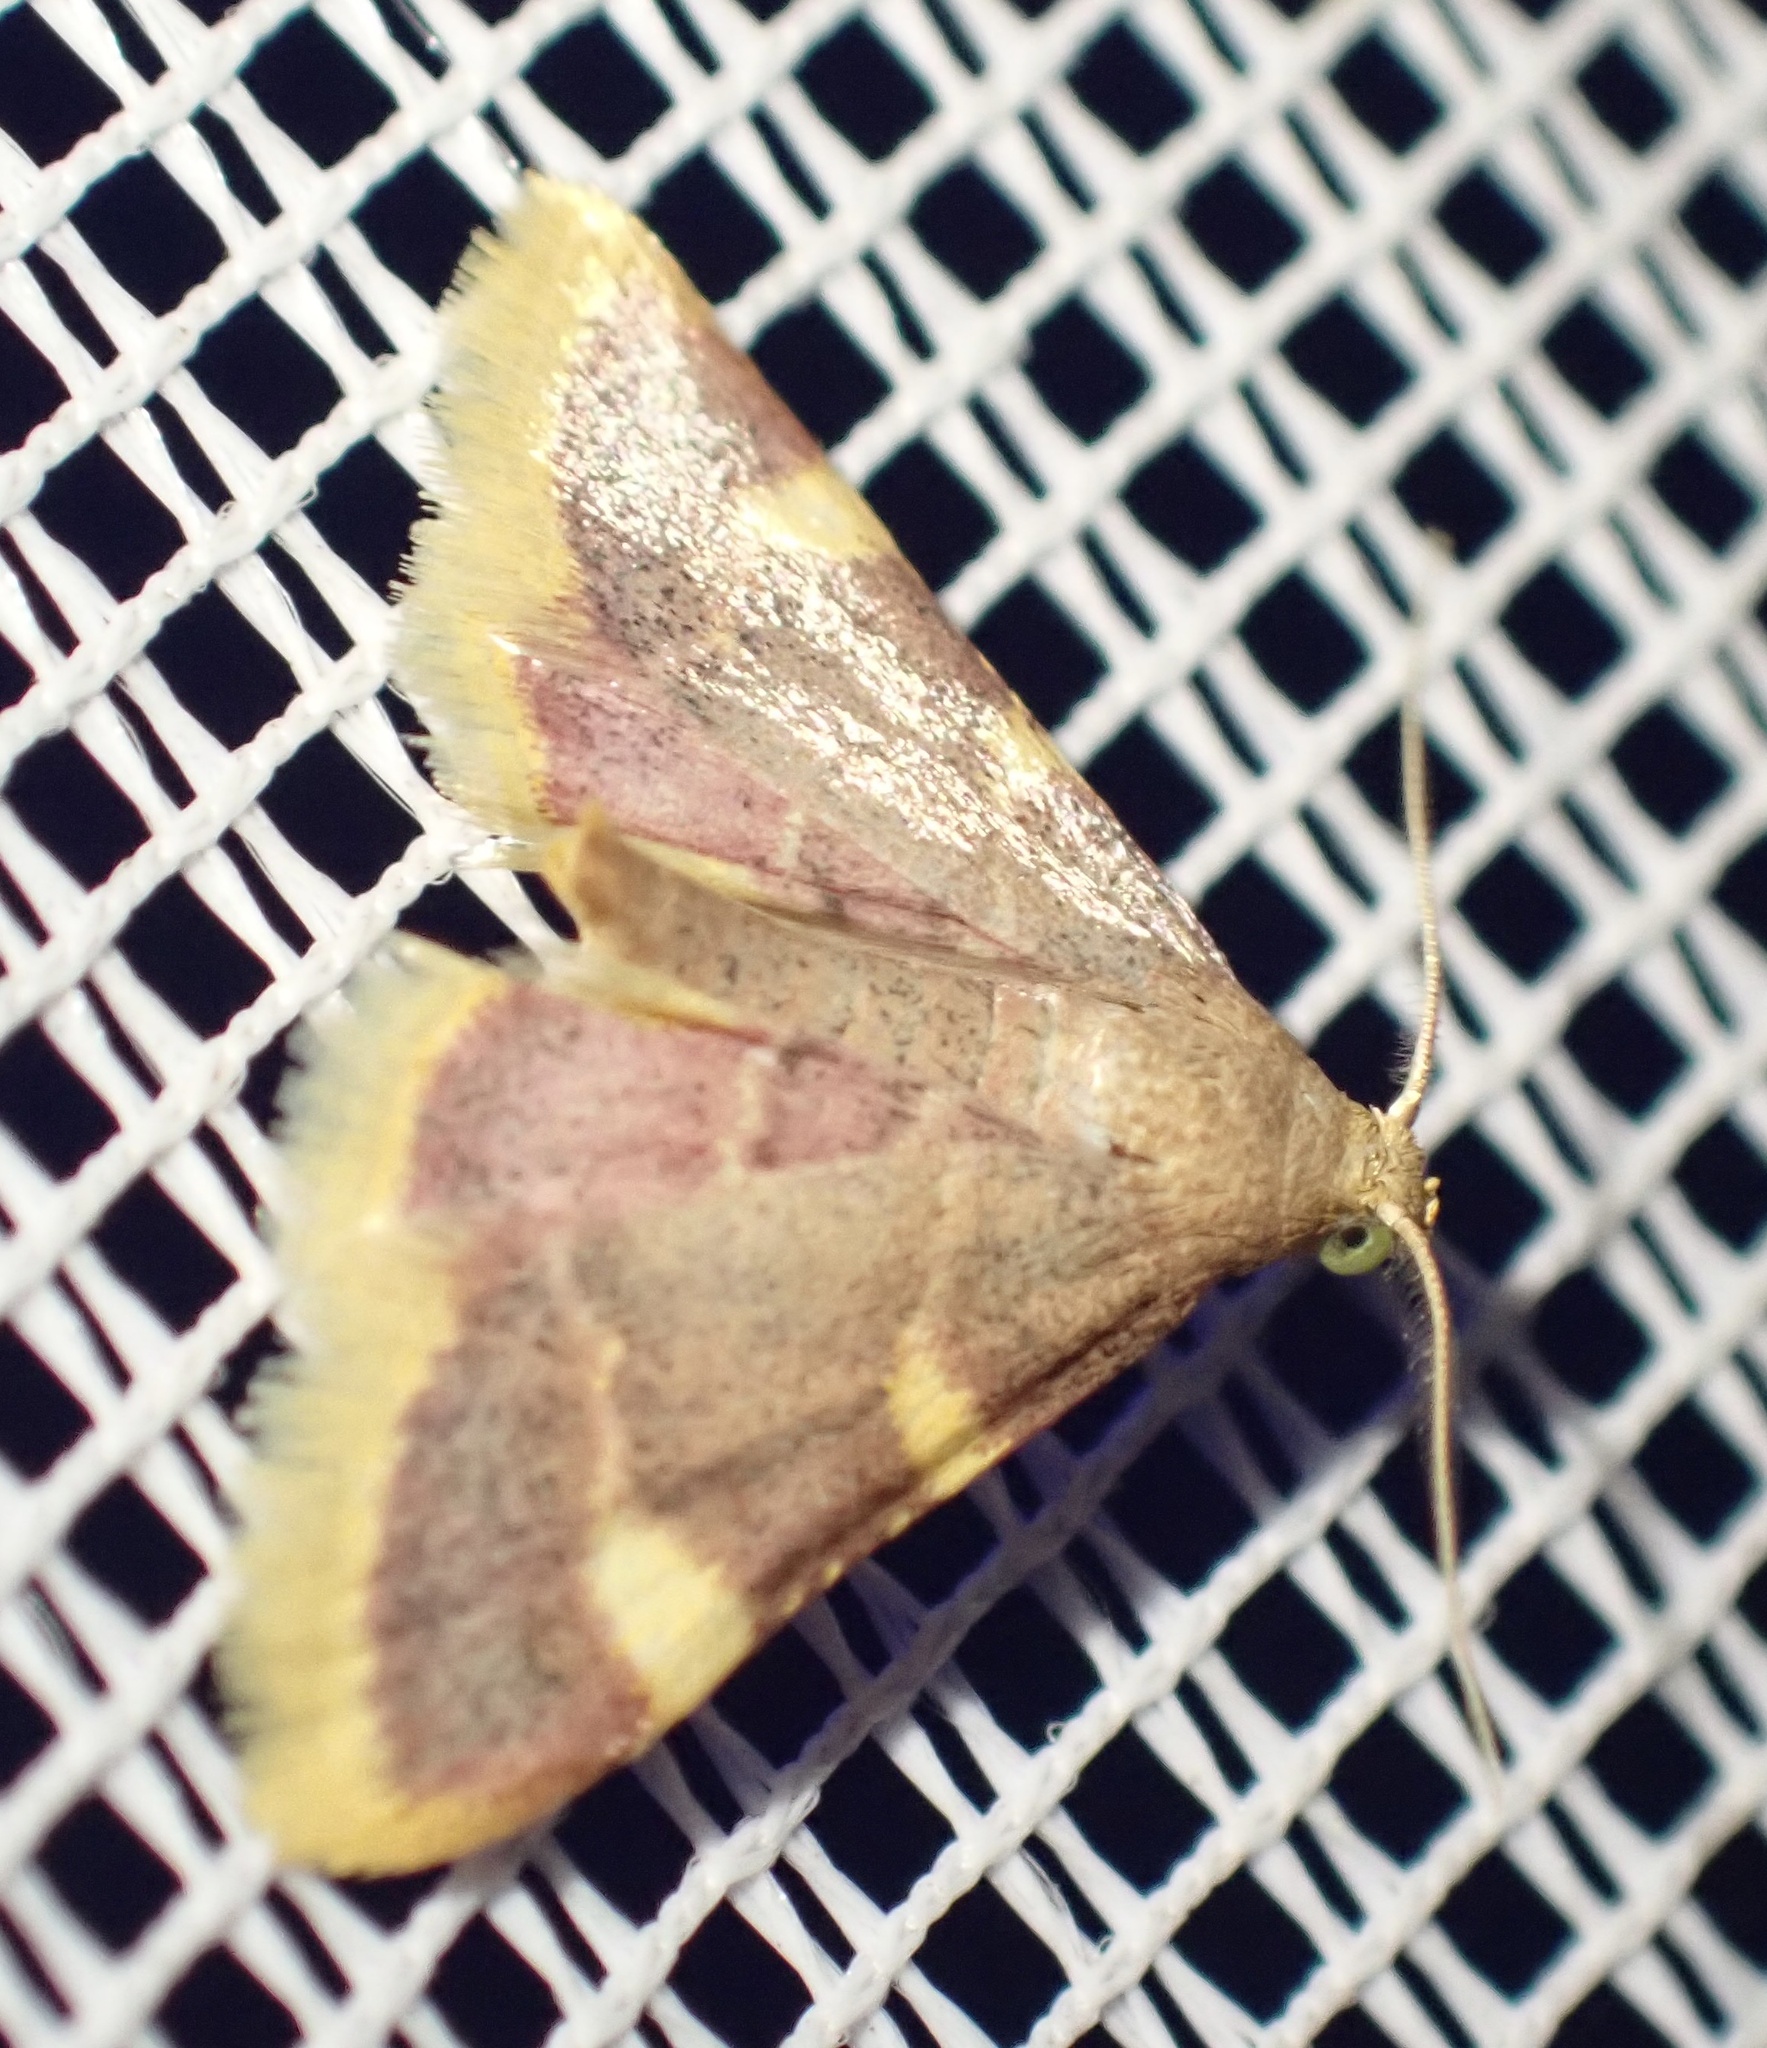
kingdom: Animalia
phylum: Arthropoda
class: Insecta
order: Lepidoptera
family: Pyralidae
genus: Hypsopygia
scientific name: Hypsopygia costalis
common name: Gold triangle
